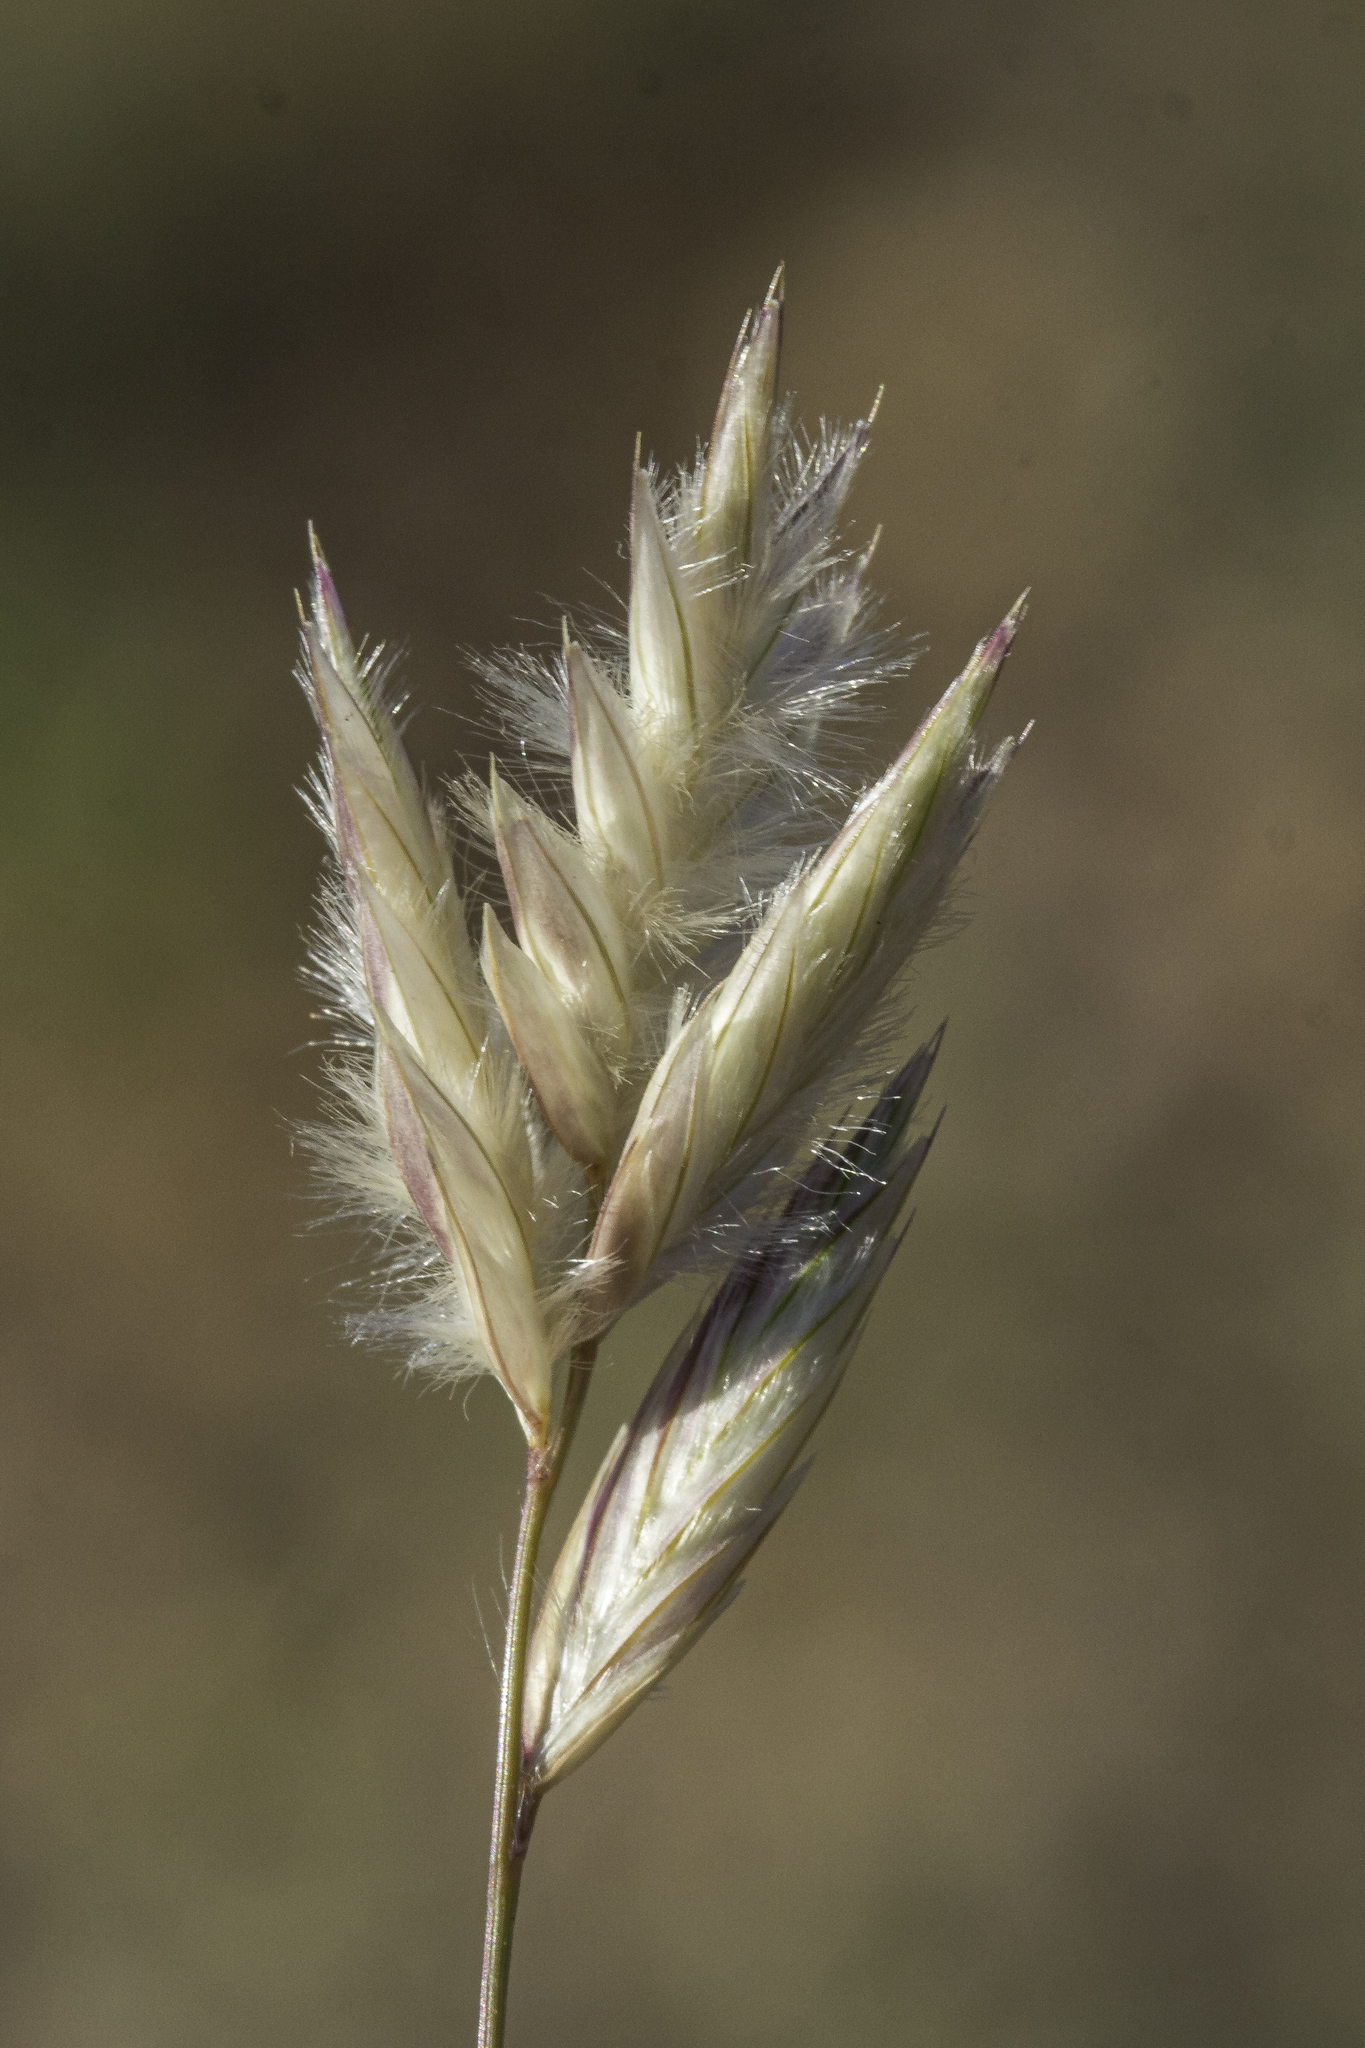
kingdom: Plantae
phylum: Tracheophyta
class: Liliopsida
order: Poales
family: Poaceae
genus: Erioneuron
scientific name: Erioneuron pilosum
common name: Hairy woolly grass
